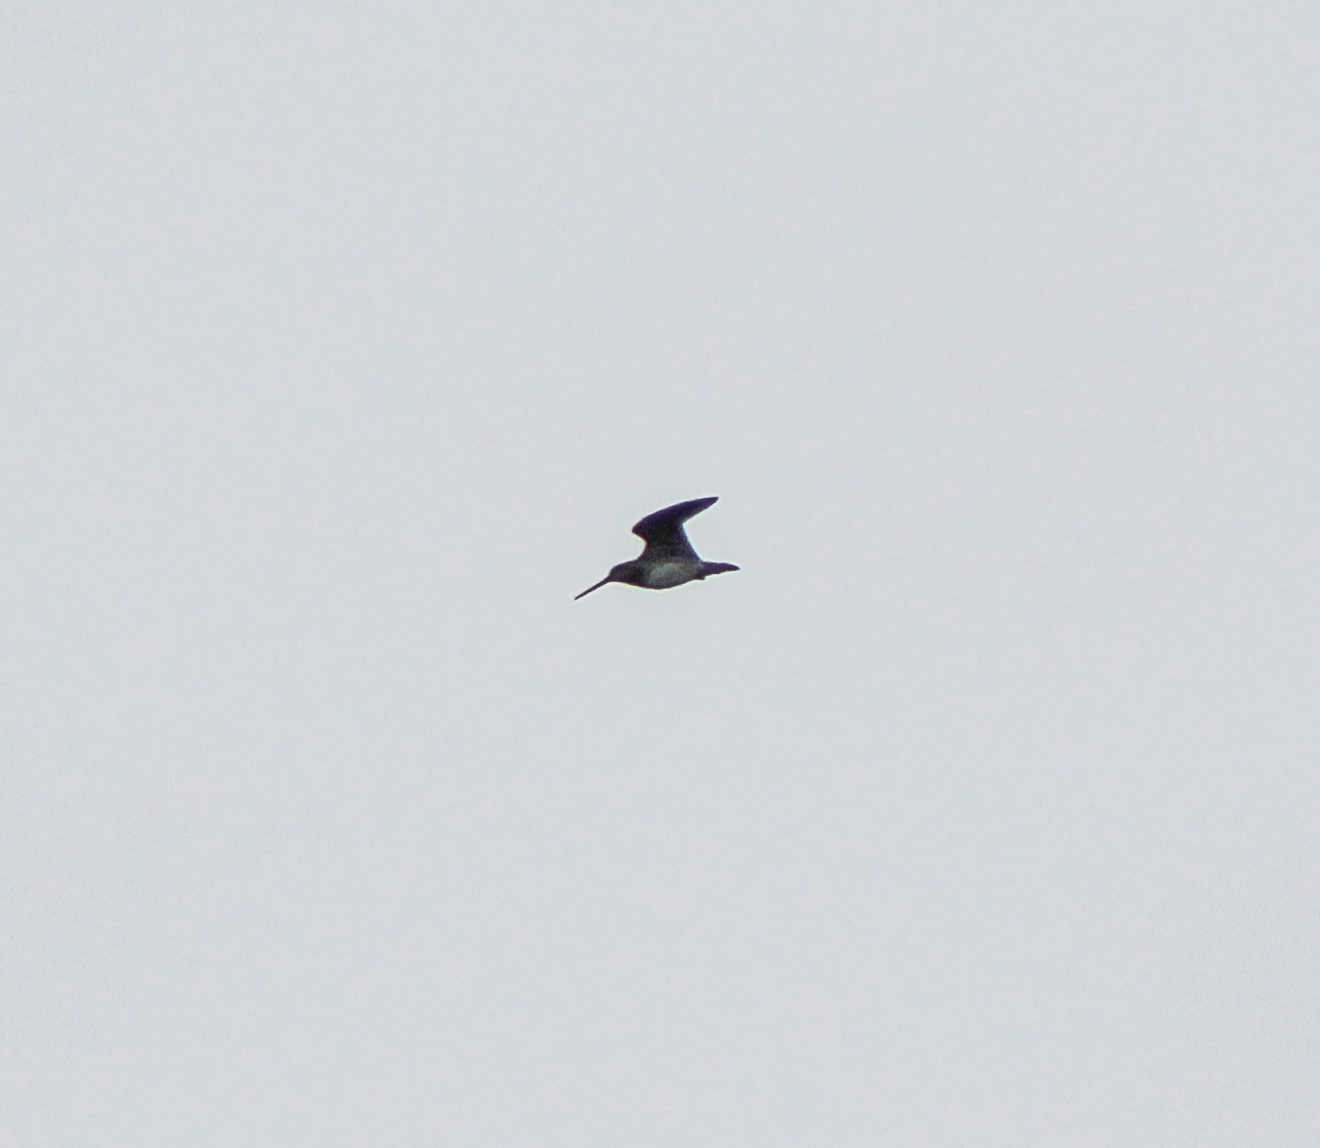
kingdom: Animalia
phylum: Chordata
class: Aves
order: Charadriiformes
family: Scolopacidae
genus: Gallinago
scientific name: Gallinago delicata
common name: Wilson's snipe
